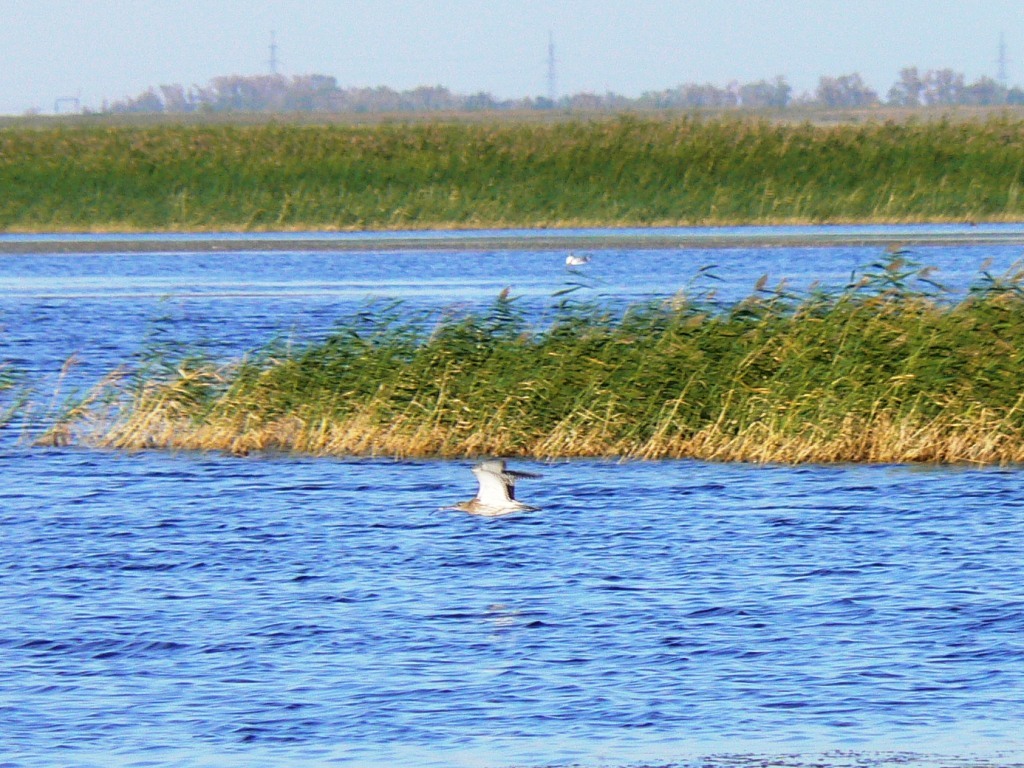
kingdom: Animalia
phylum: Chordata
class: Aves
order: Charadriiformes
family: Scolopacidae
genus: Numenius
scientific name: Numenius arquata
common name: Eurasian curlew
